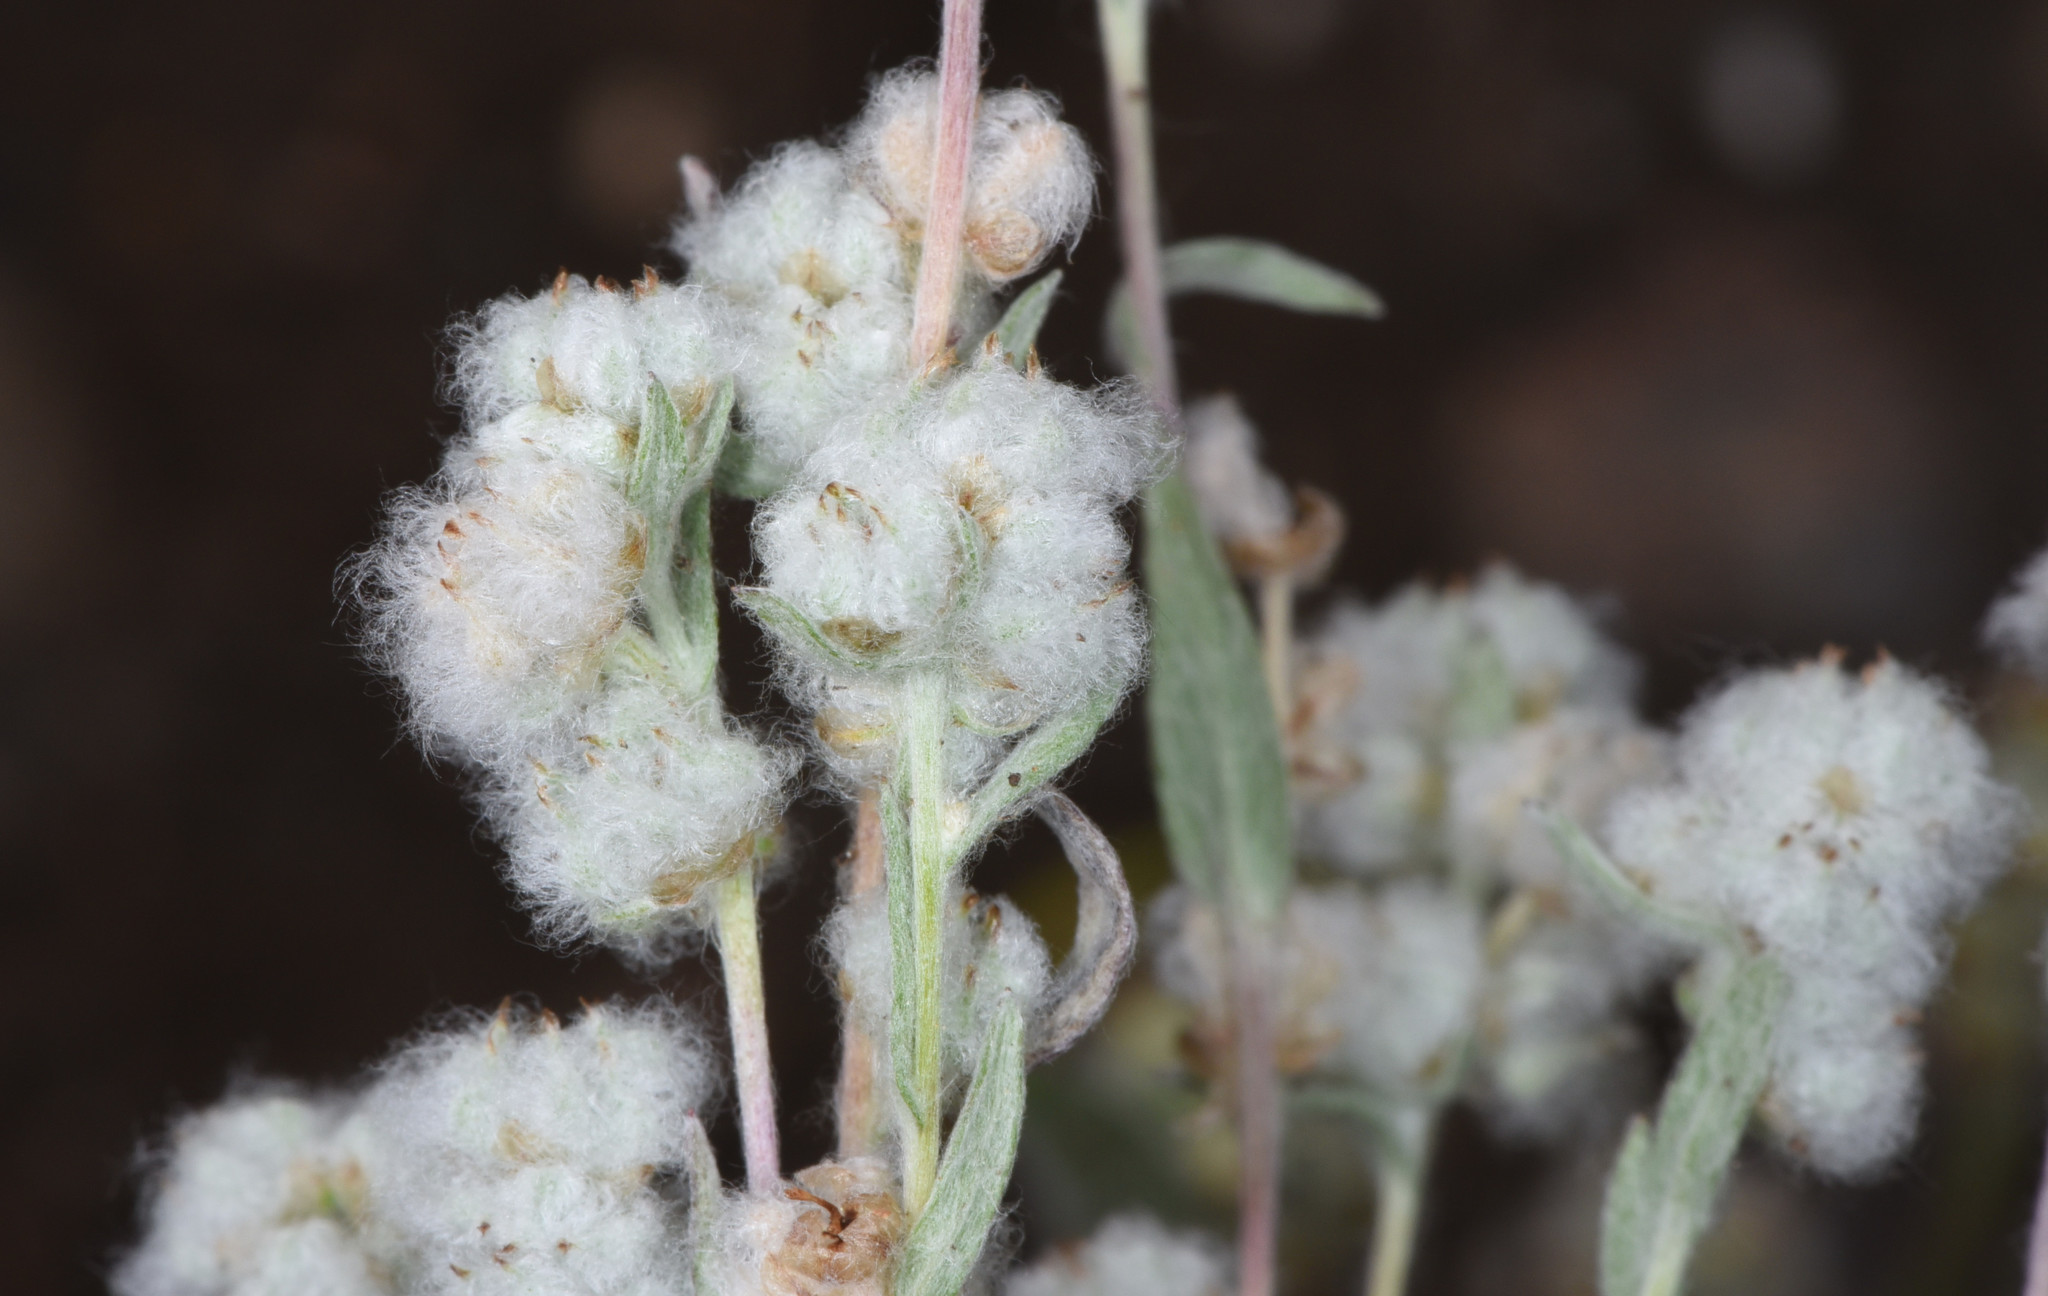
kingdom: Plantae
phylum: Tracheophyta
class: Magnoliopsida
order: Asterales
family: Asteraceae
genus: Bombycilaena
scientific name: Bombycilaena californica
